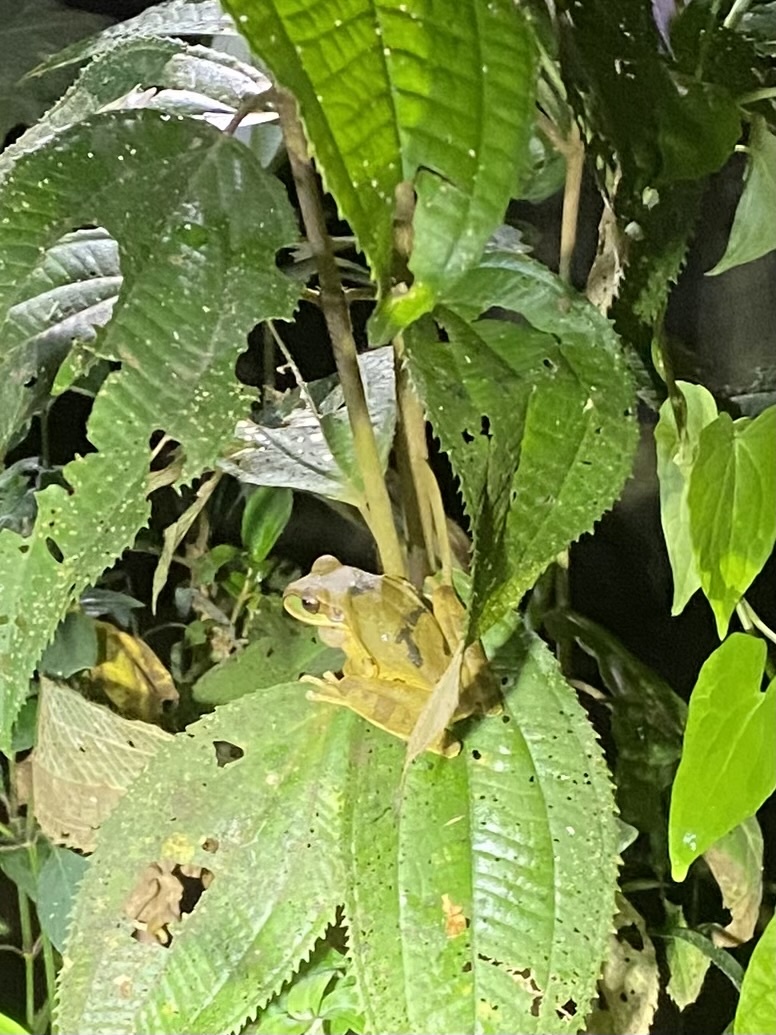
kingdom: Animalia
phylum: Chordata
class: Amphibia
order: Anura
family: Hylidae
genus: Smilisca
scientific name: Smilisca phaeota
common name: Central american smilisca
